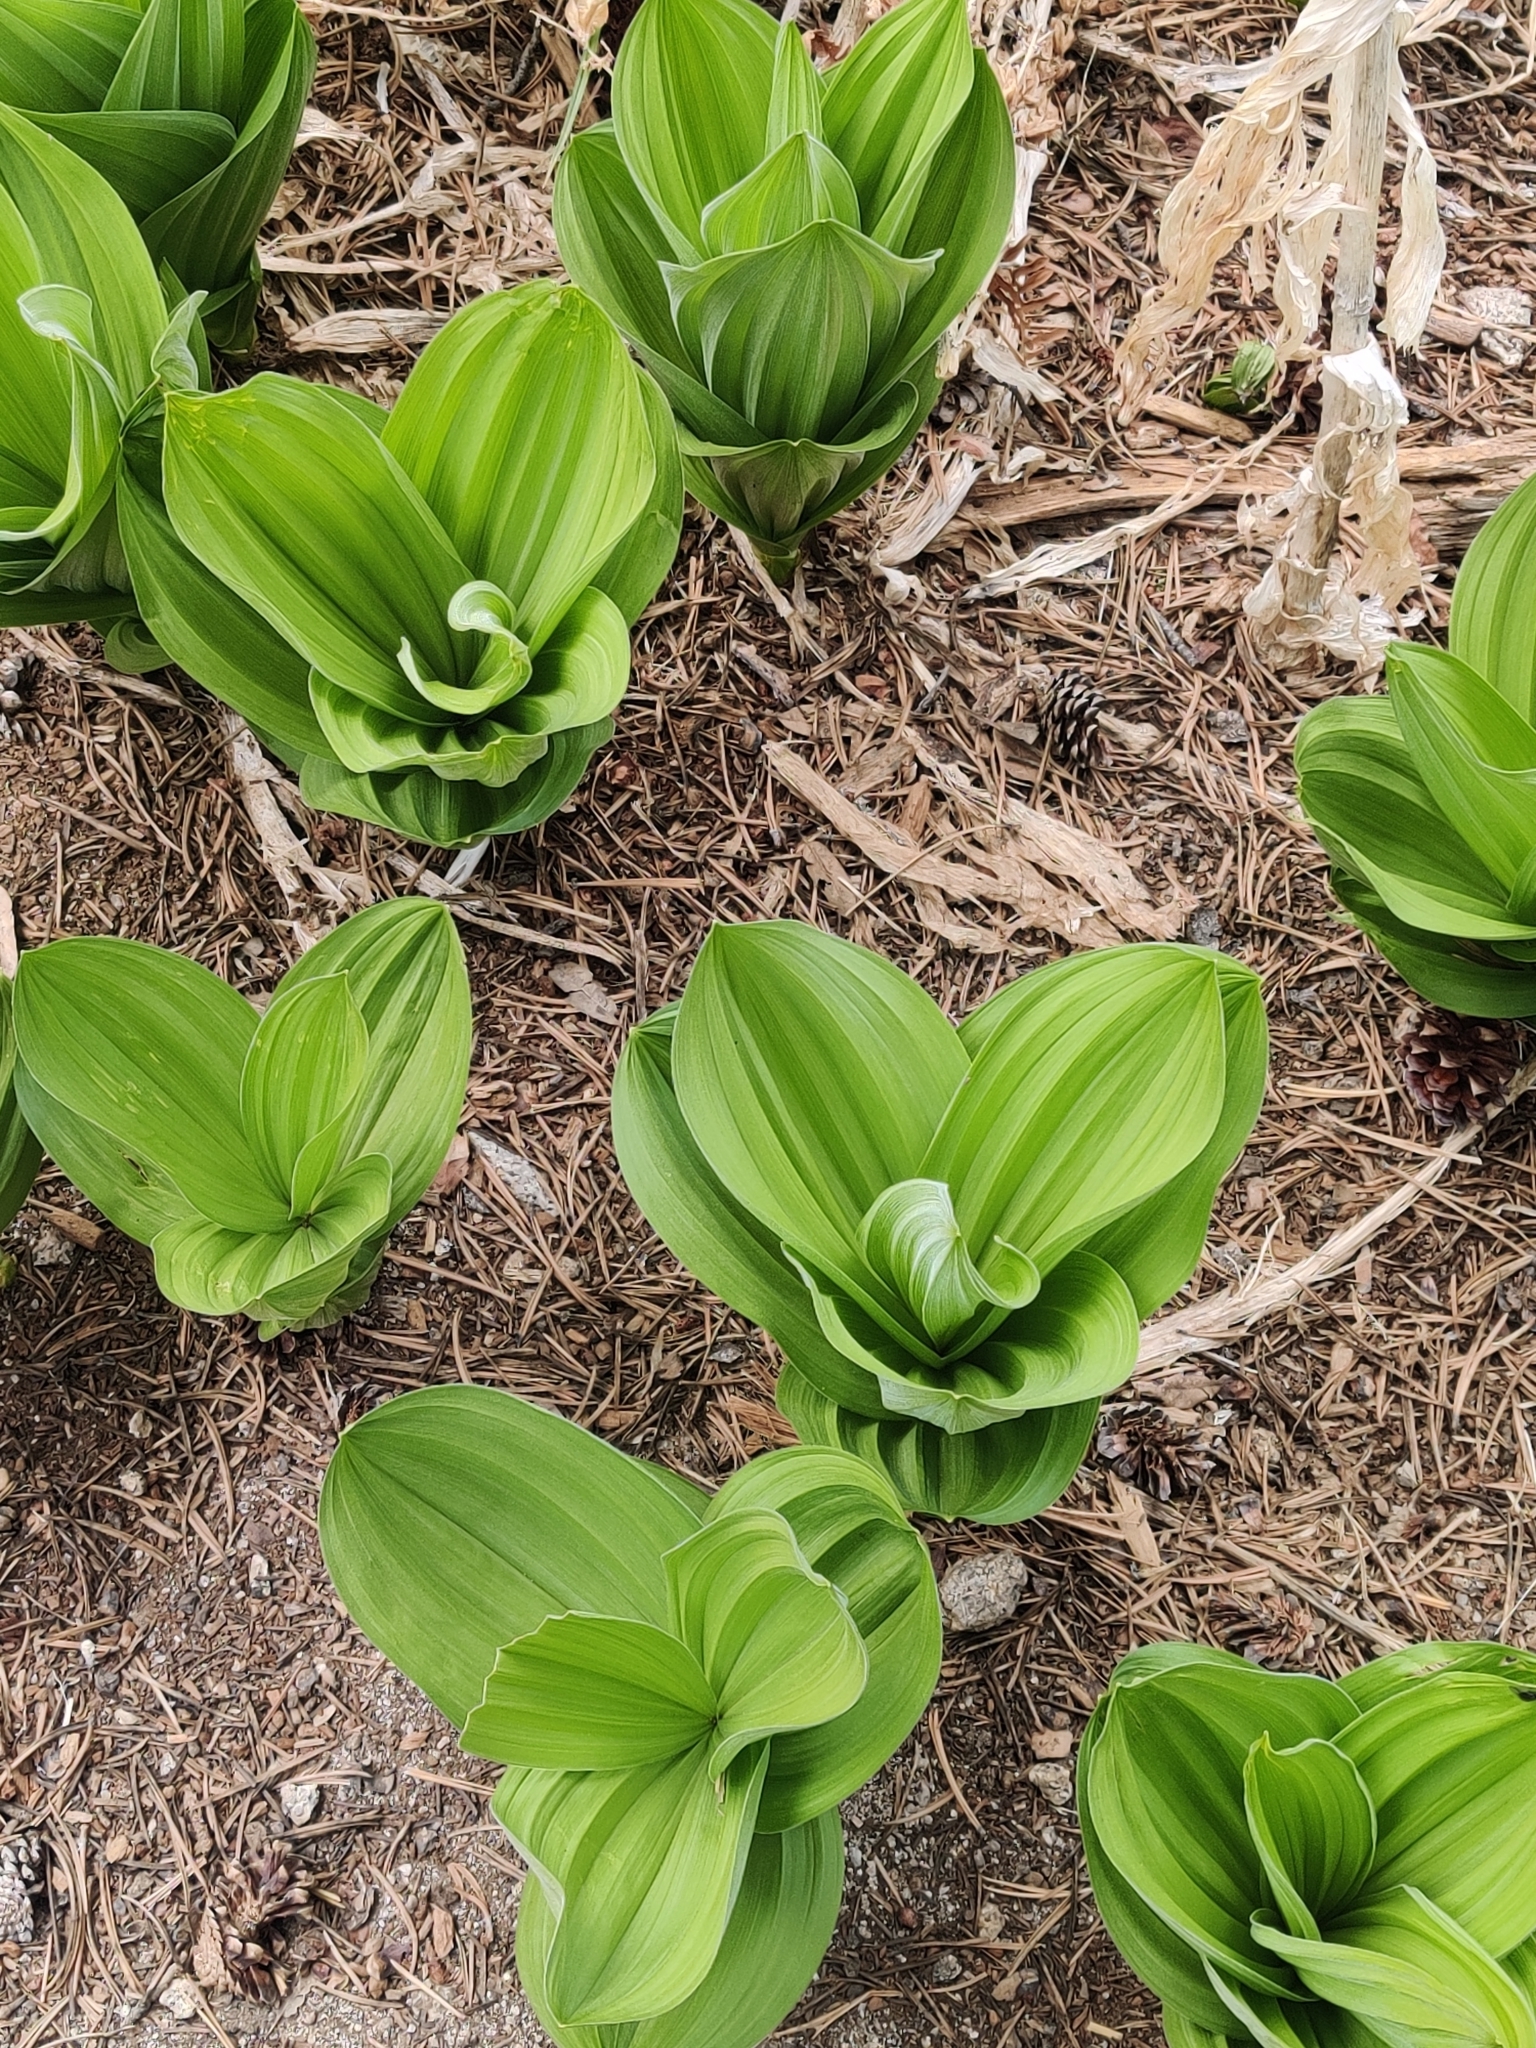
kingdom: Plantae
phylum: Tracheophyta
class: Liliopsida
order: Liliales
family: Melanthiaceae
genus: Veratrum
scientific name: Veratrum californicum
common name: California veratrum
